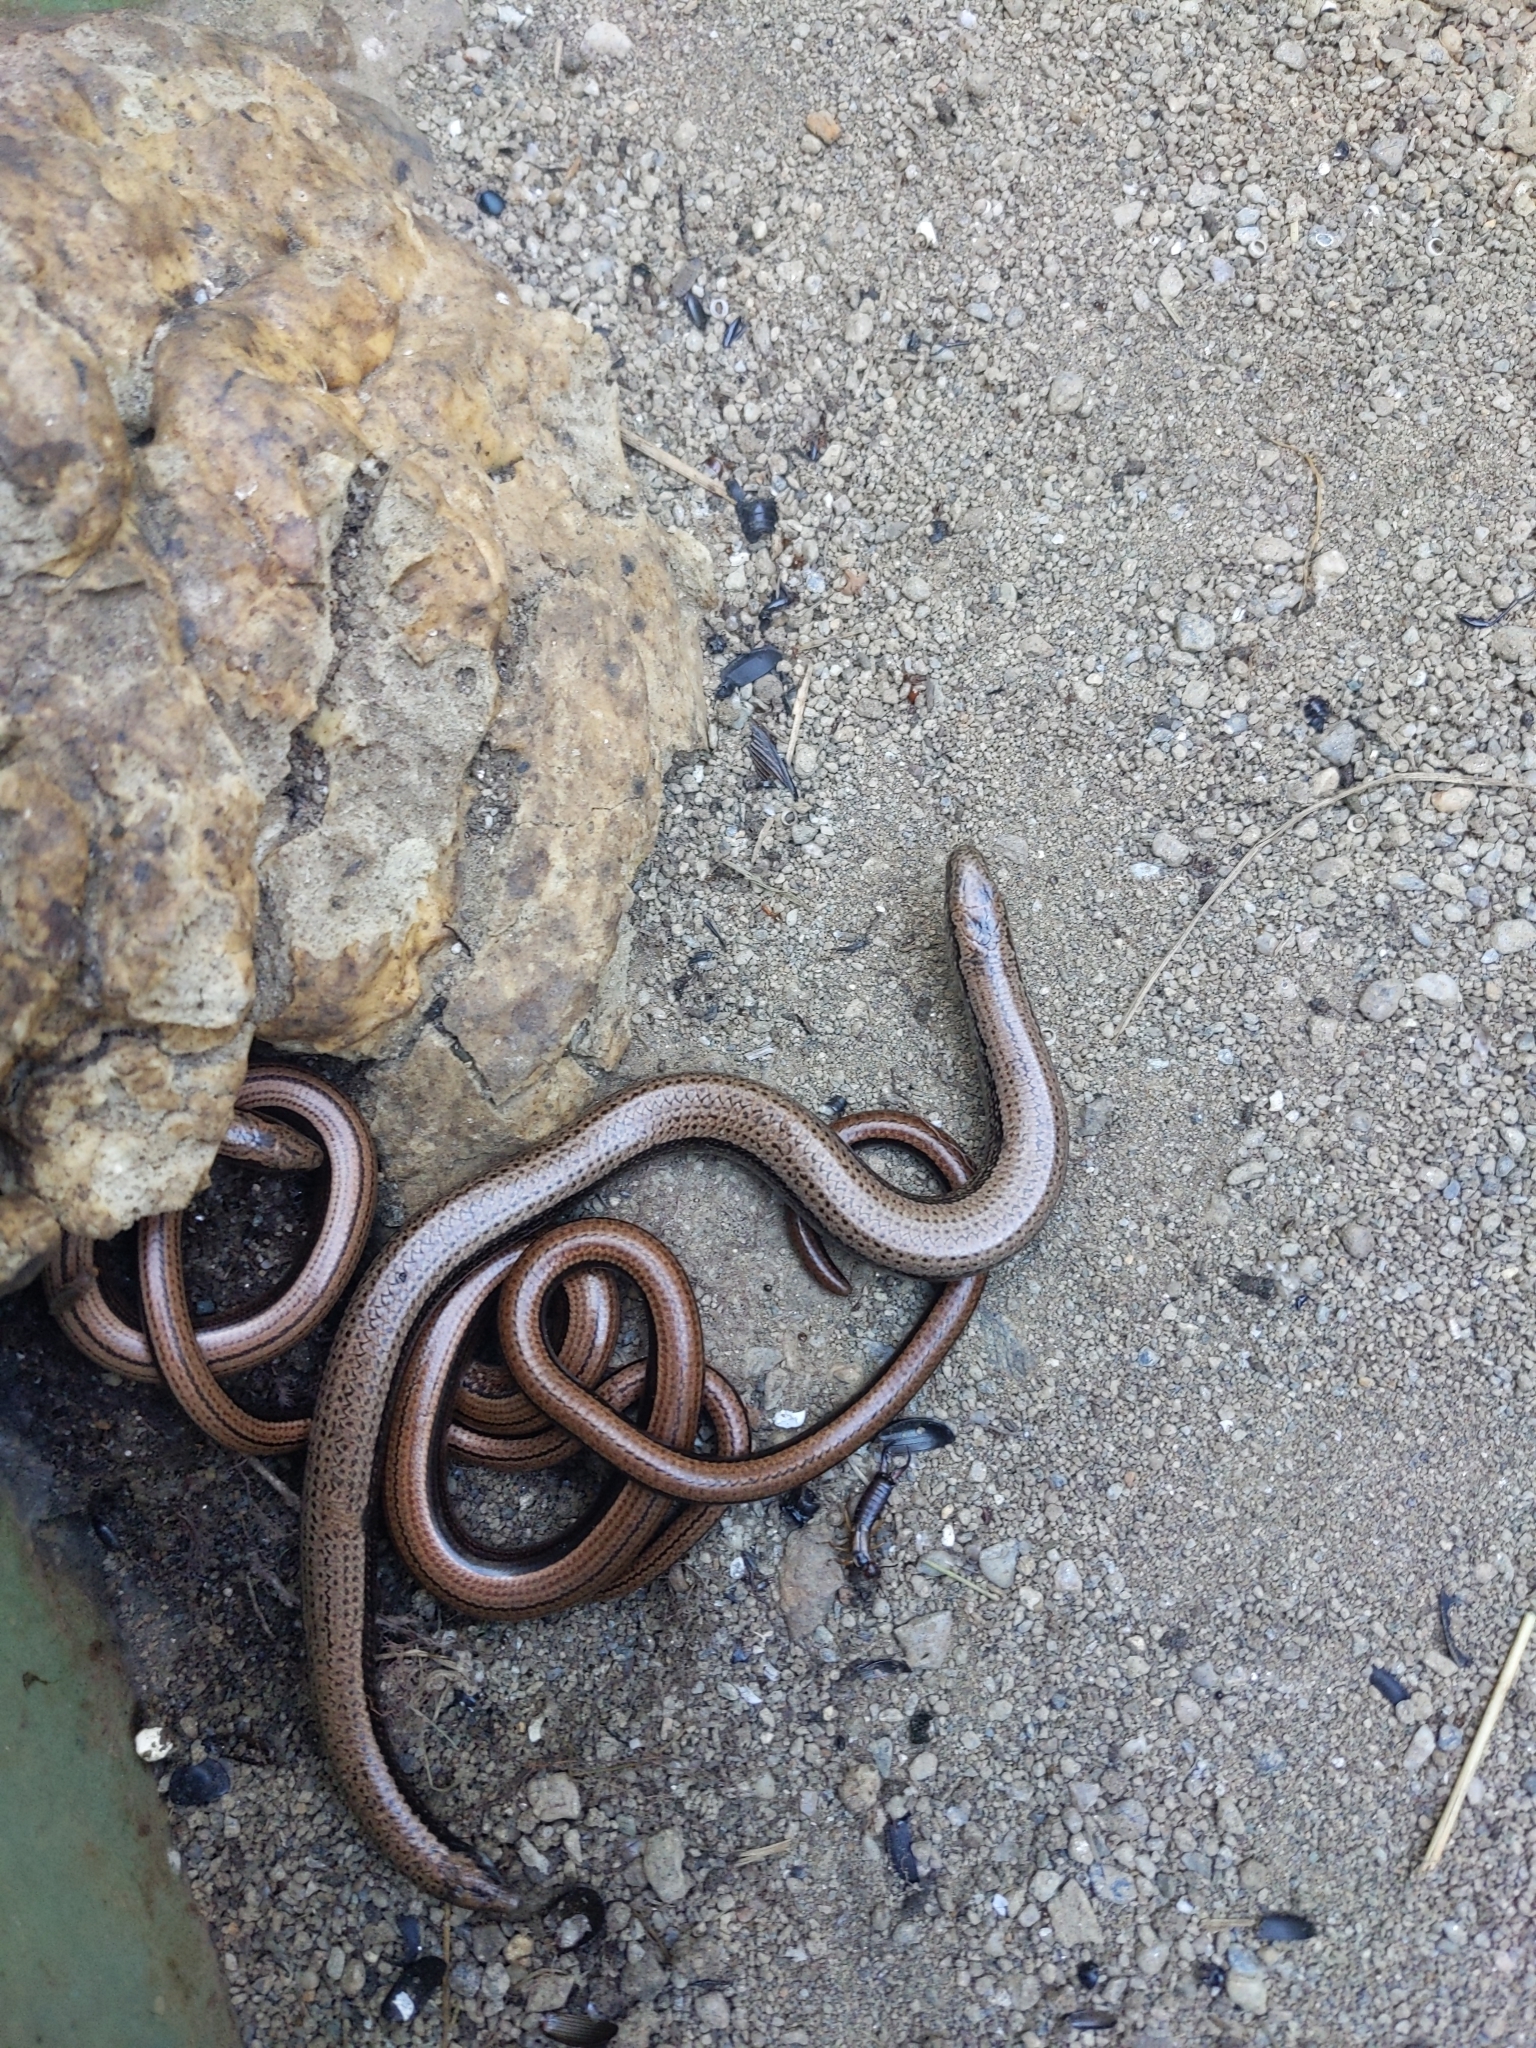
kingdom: Animalia
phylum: Chordata
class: Squamata
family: Anguidae
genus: Anguis
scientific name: Anguis fragilis
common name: Slow worm
